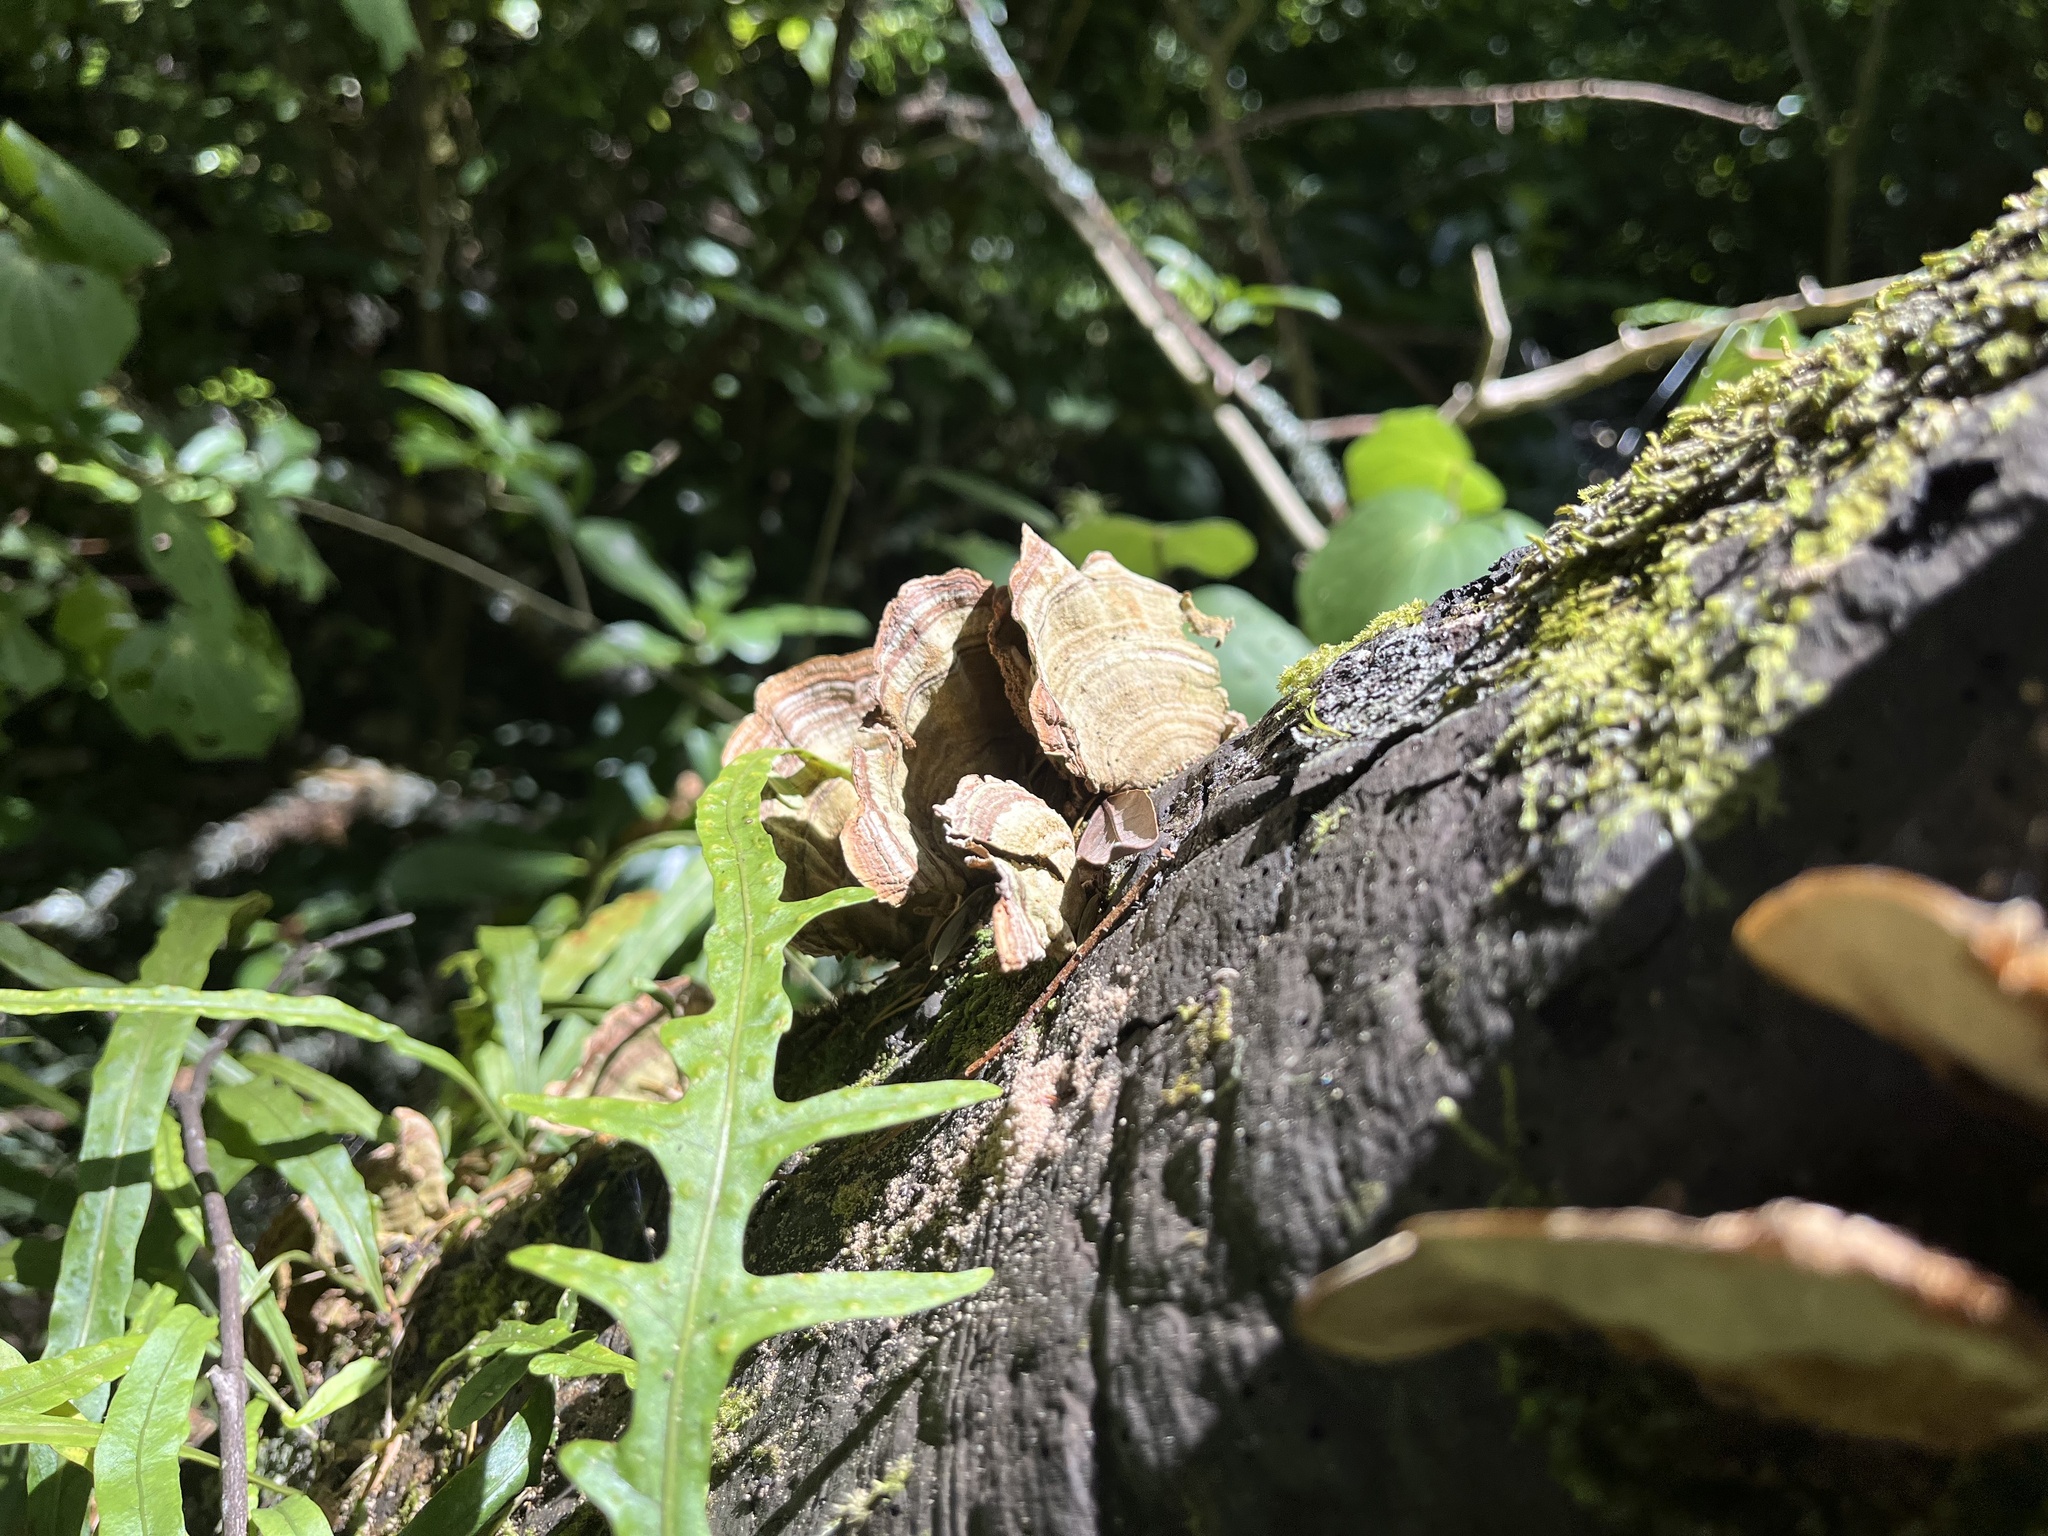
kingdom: Fungi
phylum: Basidiomycota
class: Agaricomycetes
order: Russulales
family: Stereaceae
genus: Stereum
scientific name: Stereum ostrea
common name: False turkeytail
